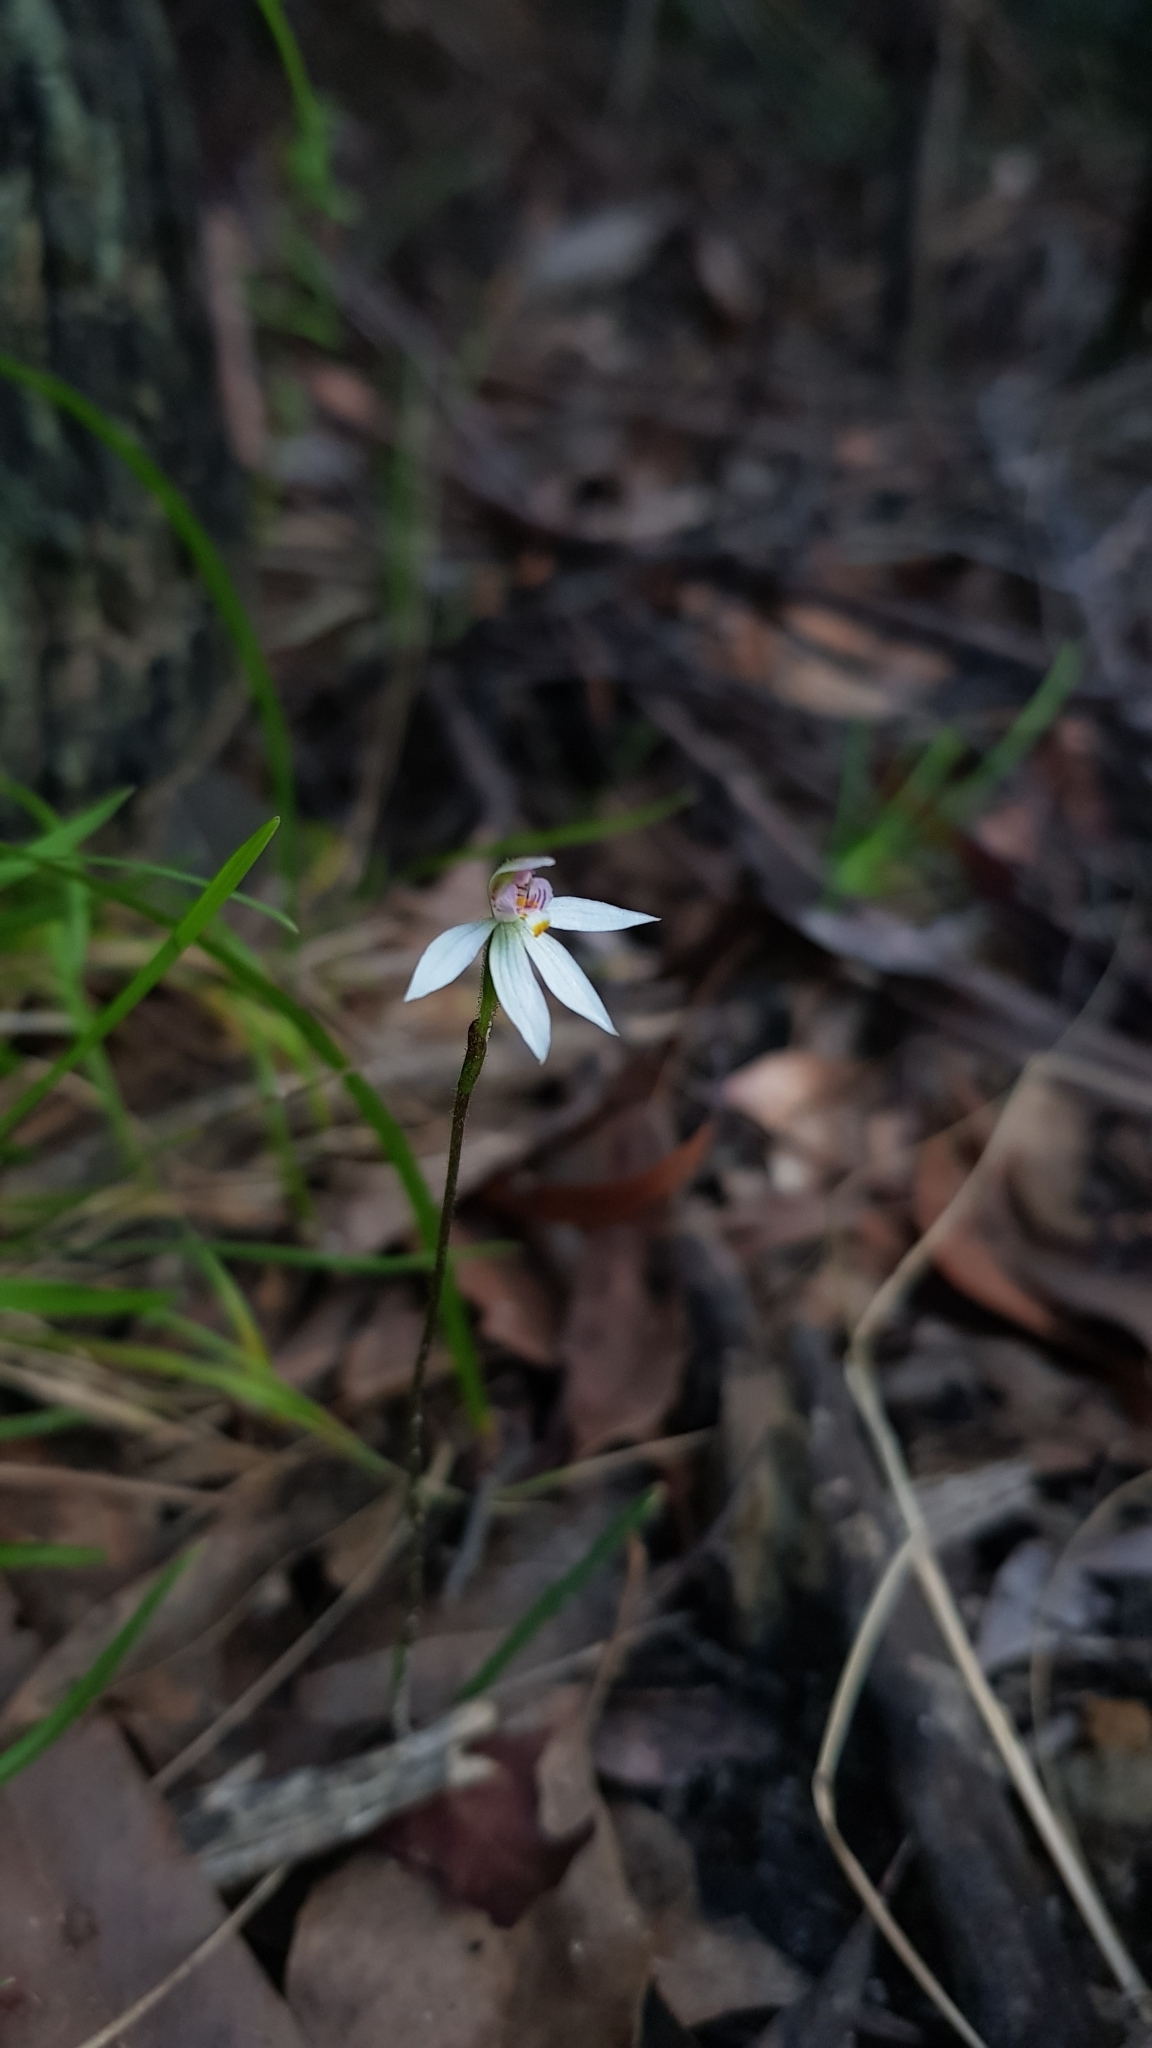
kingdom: Plantae
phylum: Tracheophyta
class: Liliopsida
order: Asparagales
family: Orchidaceae
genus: Caladenia
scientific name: Caladenia alata
